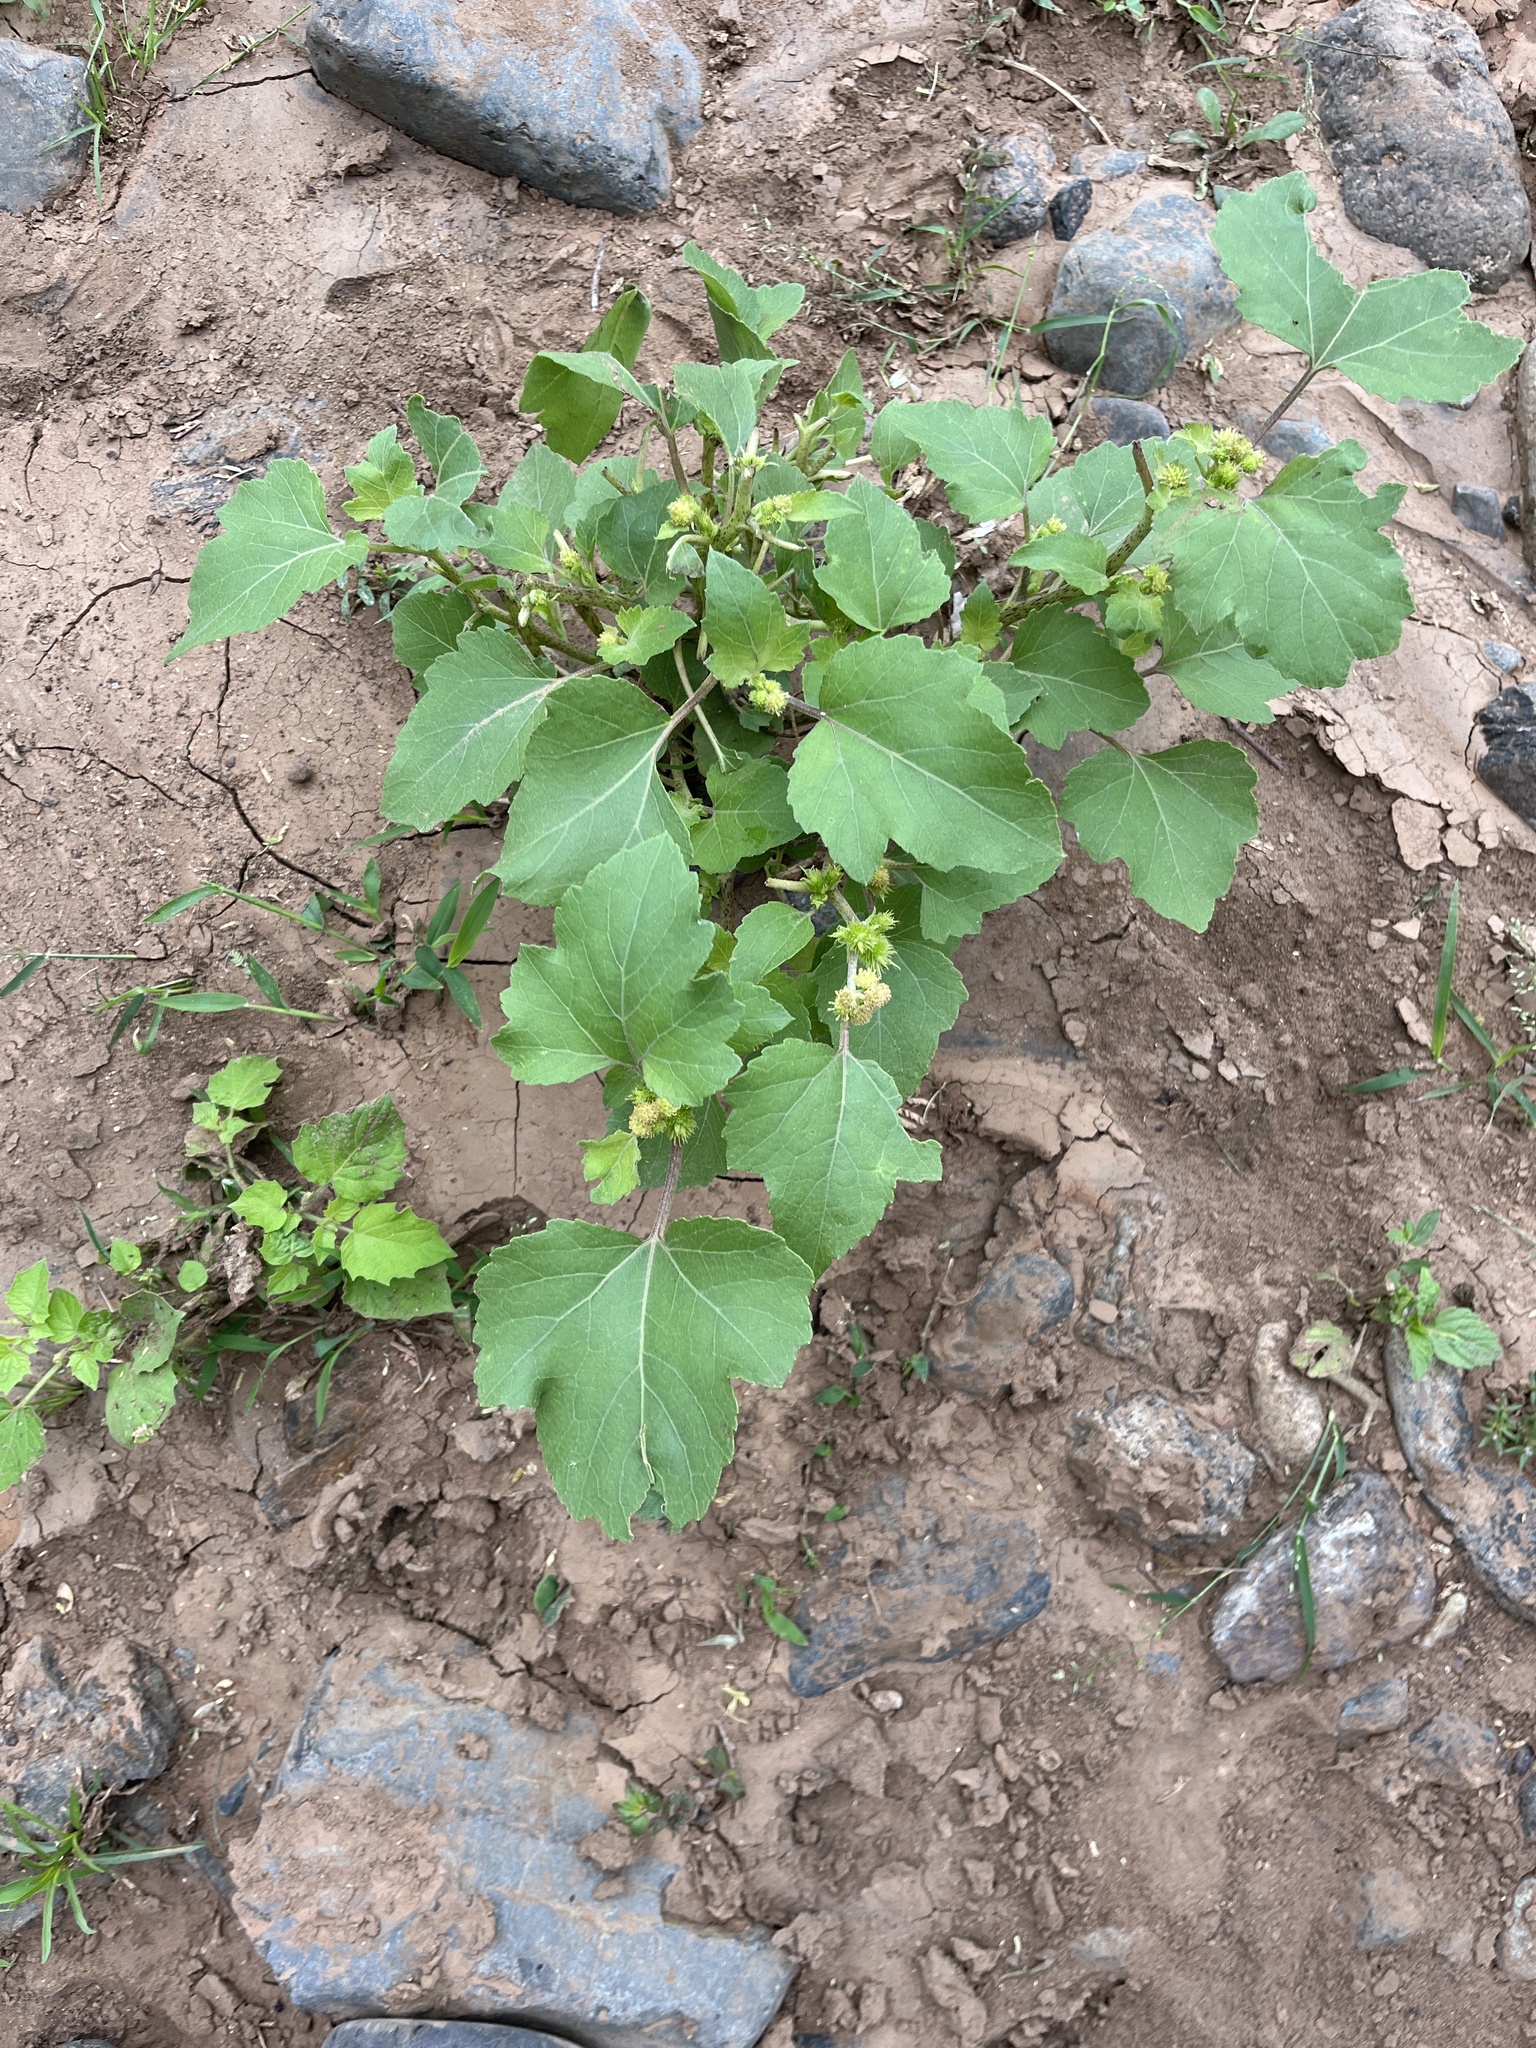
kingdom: Plantae
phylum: Tracheophyta
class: Magnoliopsida
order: Asterales
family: Asteraceae
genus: Xanthium
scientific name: Xanthium strumarium
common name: Rough cocklebur
